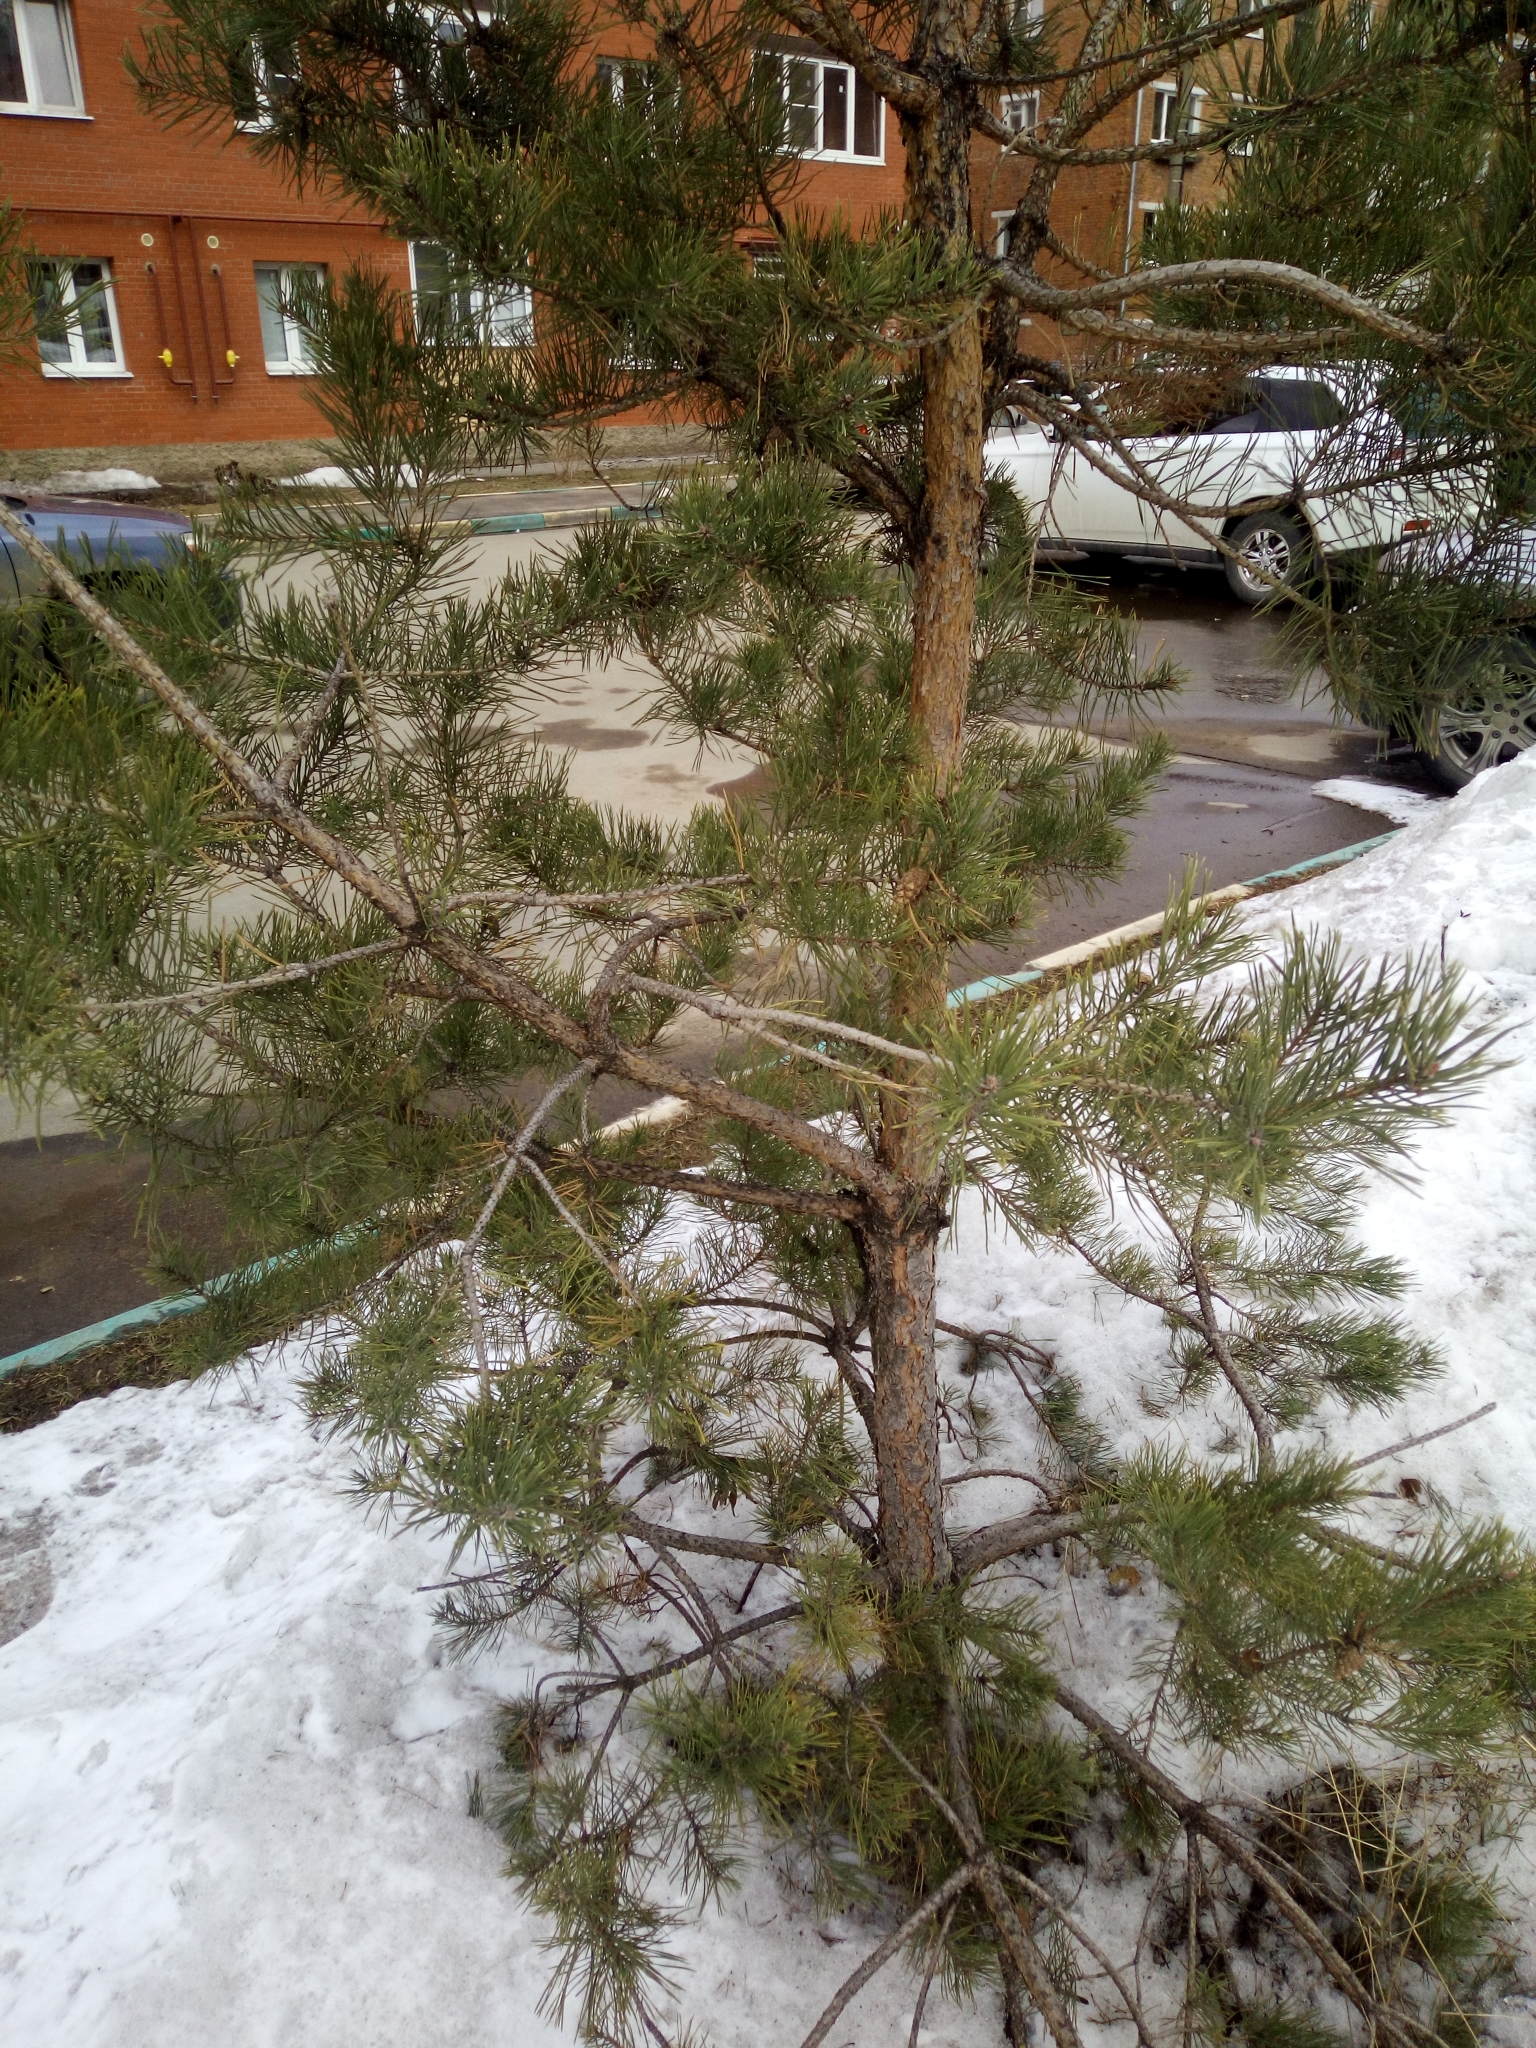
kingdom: Plantae
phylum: Tracheophyta
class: Pinopsida
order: Pinales
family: Pinaceae
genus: Pinus
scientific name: Pinus sylvestris
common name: Scots pine
